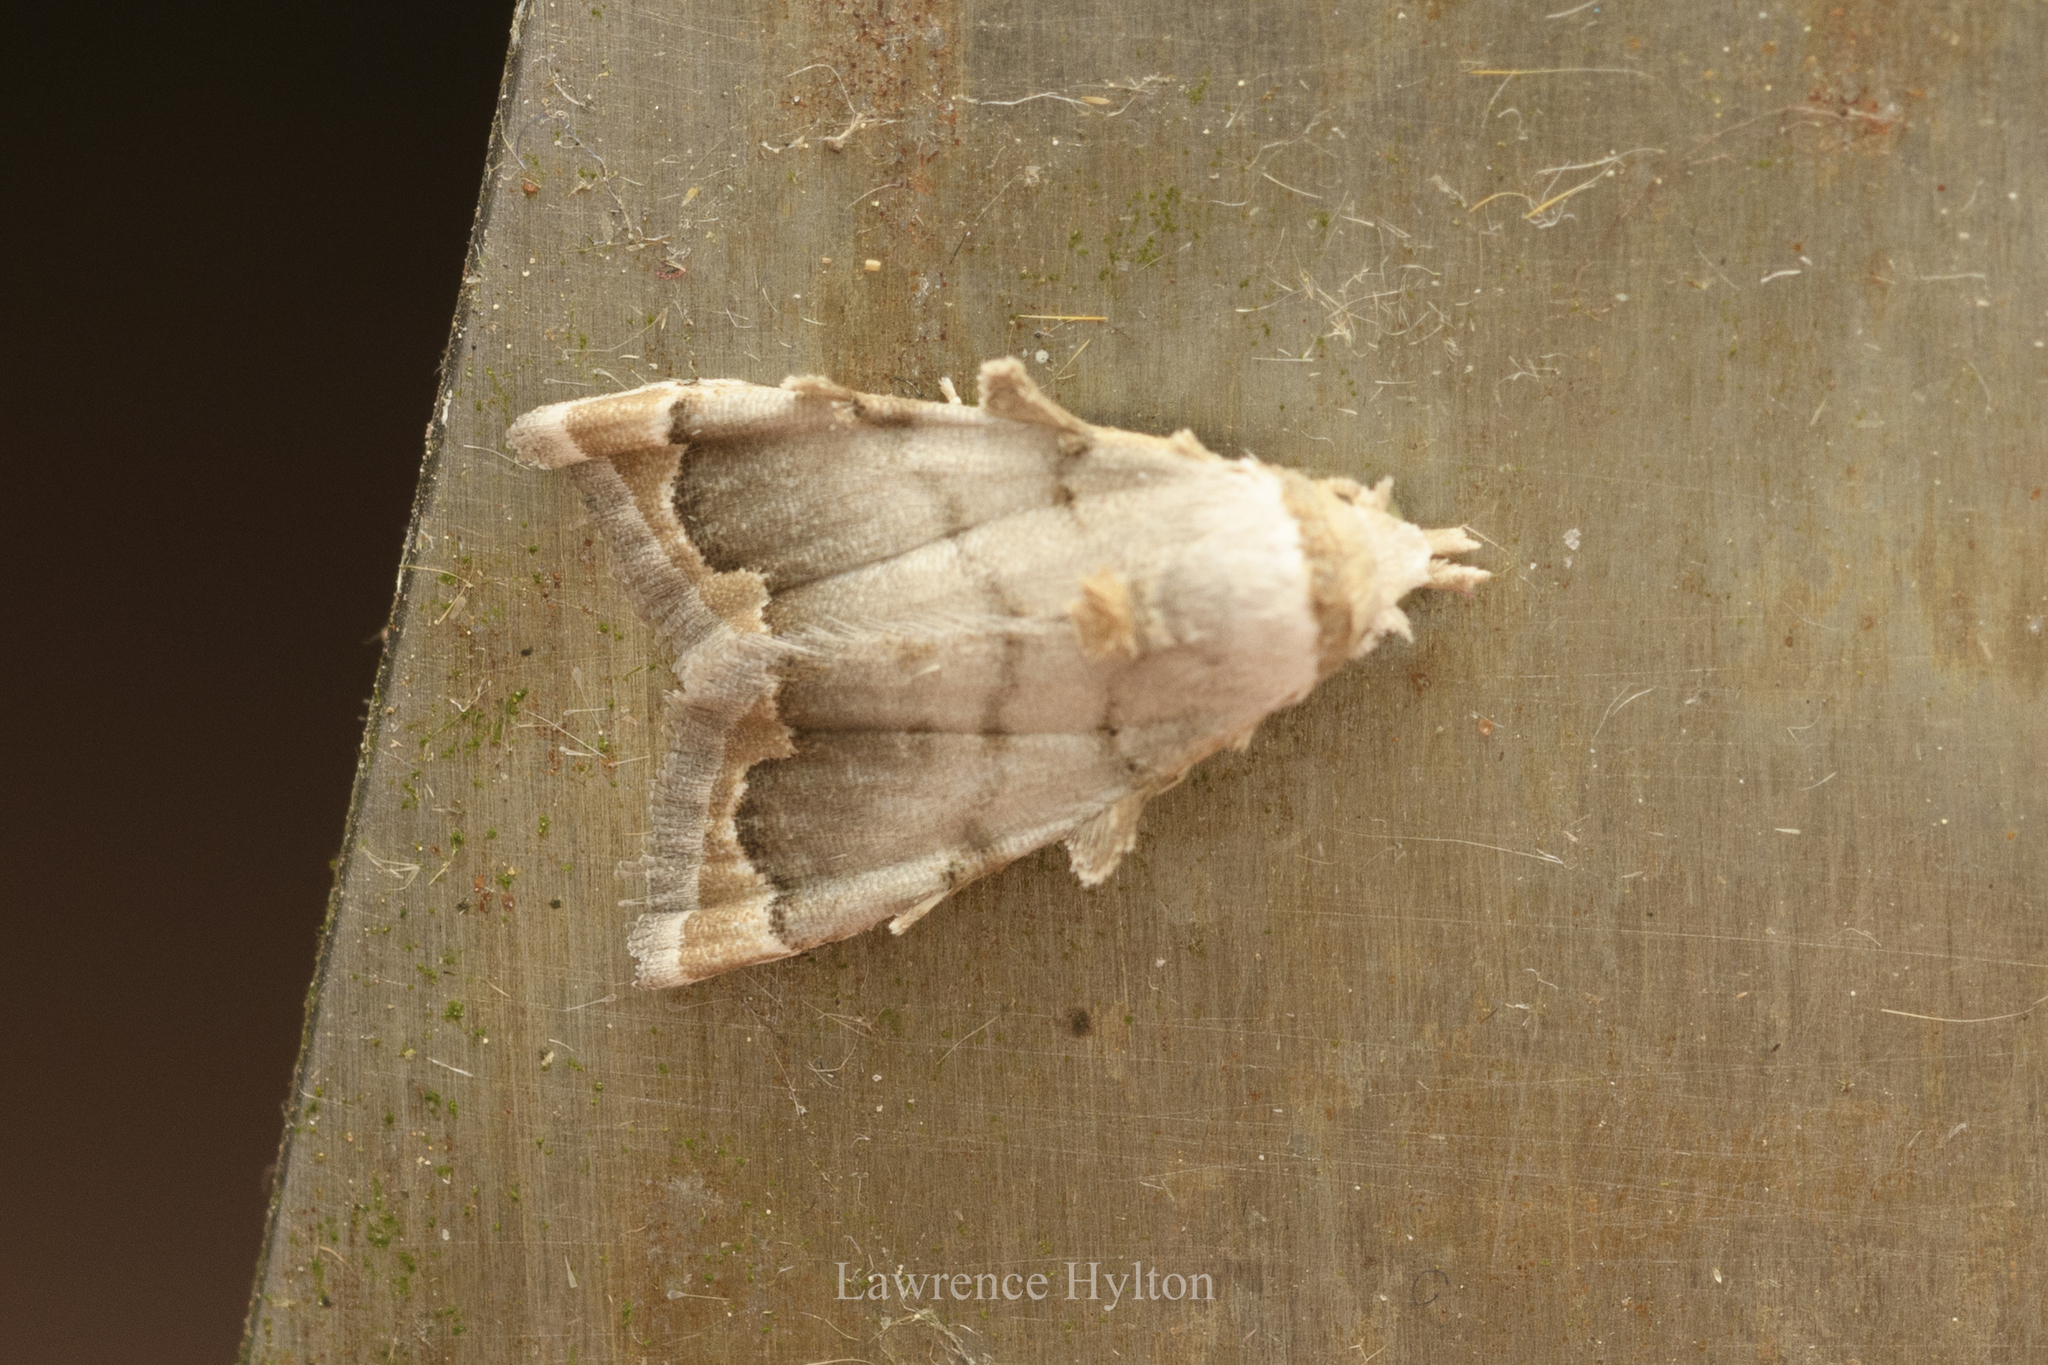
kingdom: Animalia
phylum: Arthropoda
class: Insecta
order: Lepidoptera
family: Nolidae
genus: Nola
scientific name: Nola marginata
